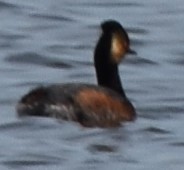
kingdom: Animalia
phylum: Chordata
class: Aves
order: Podicipediformes
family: Podicipedidae
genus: Podiceps
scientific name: Podiceps nigricollis
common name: Black-necked grebe
